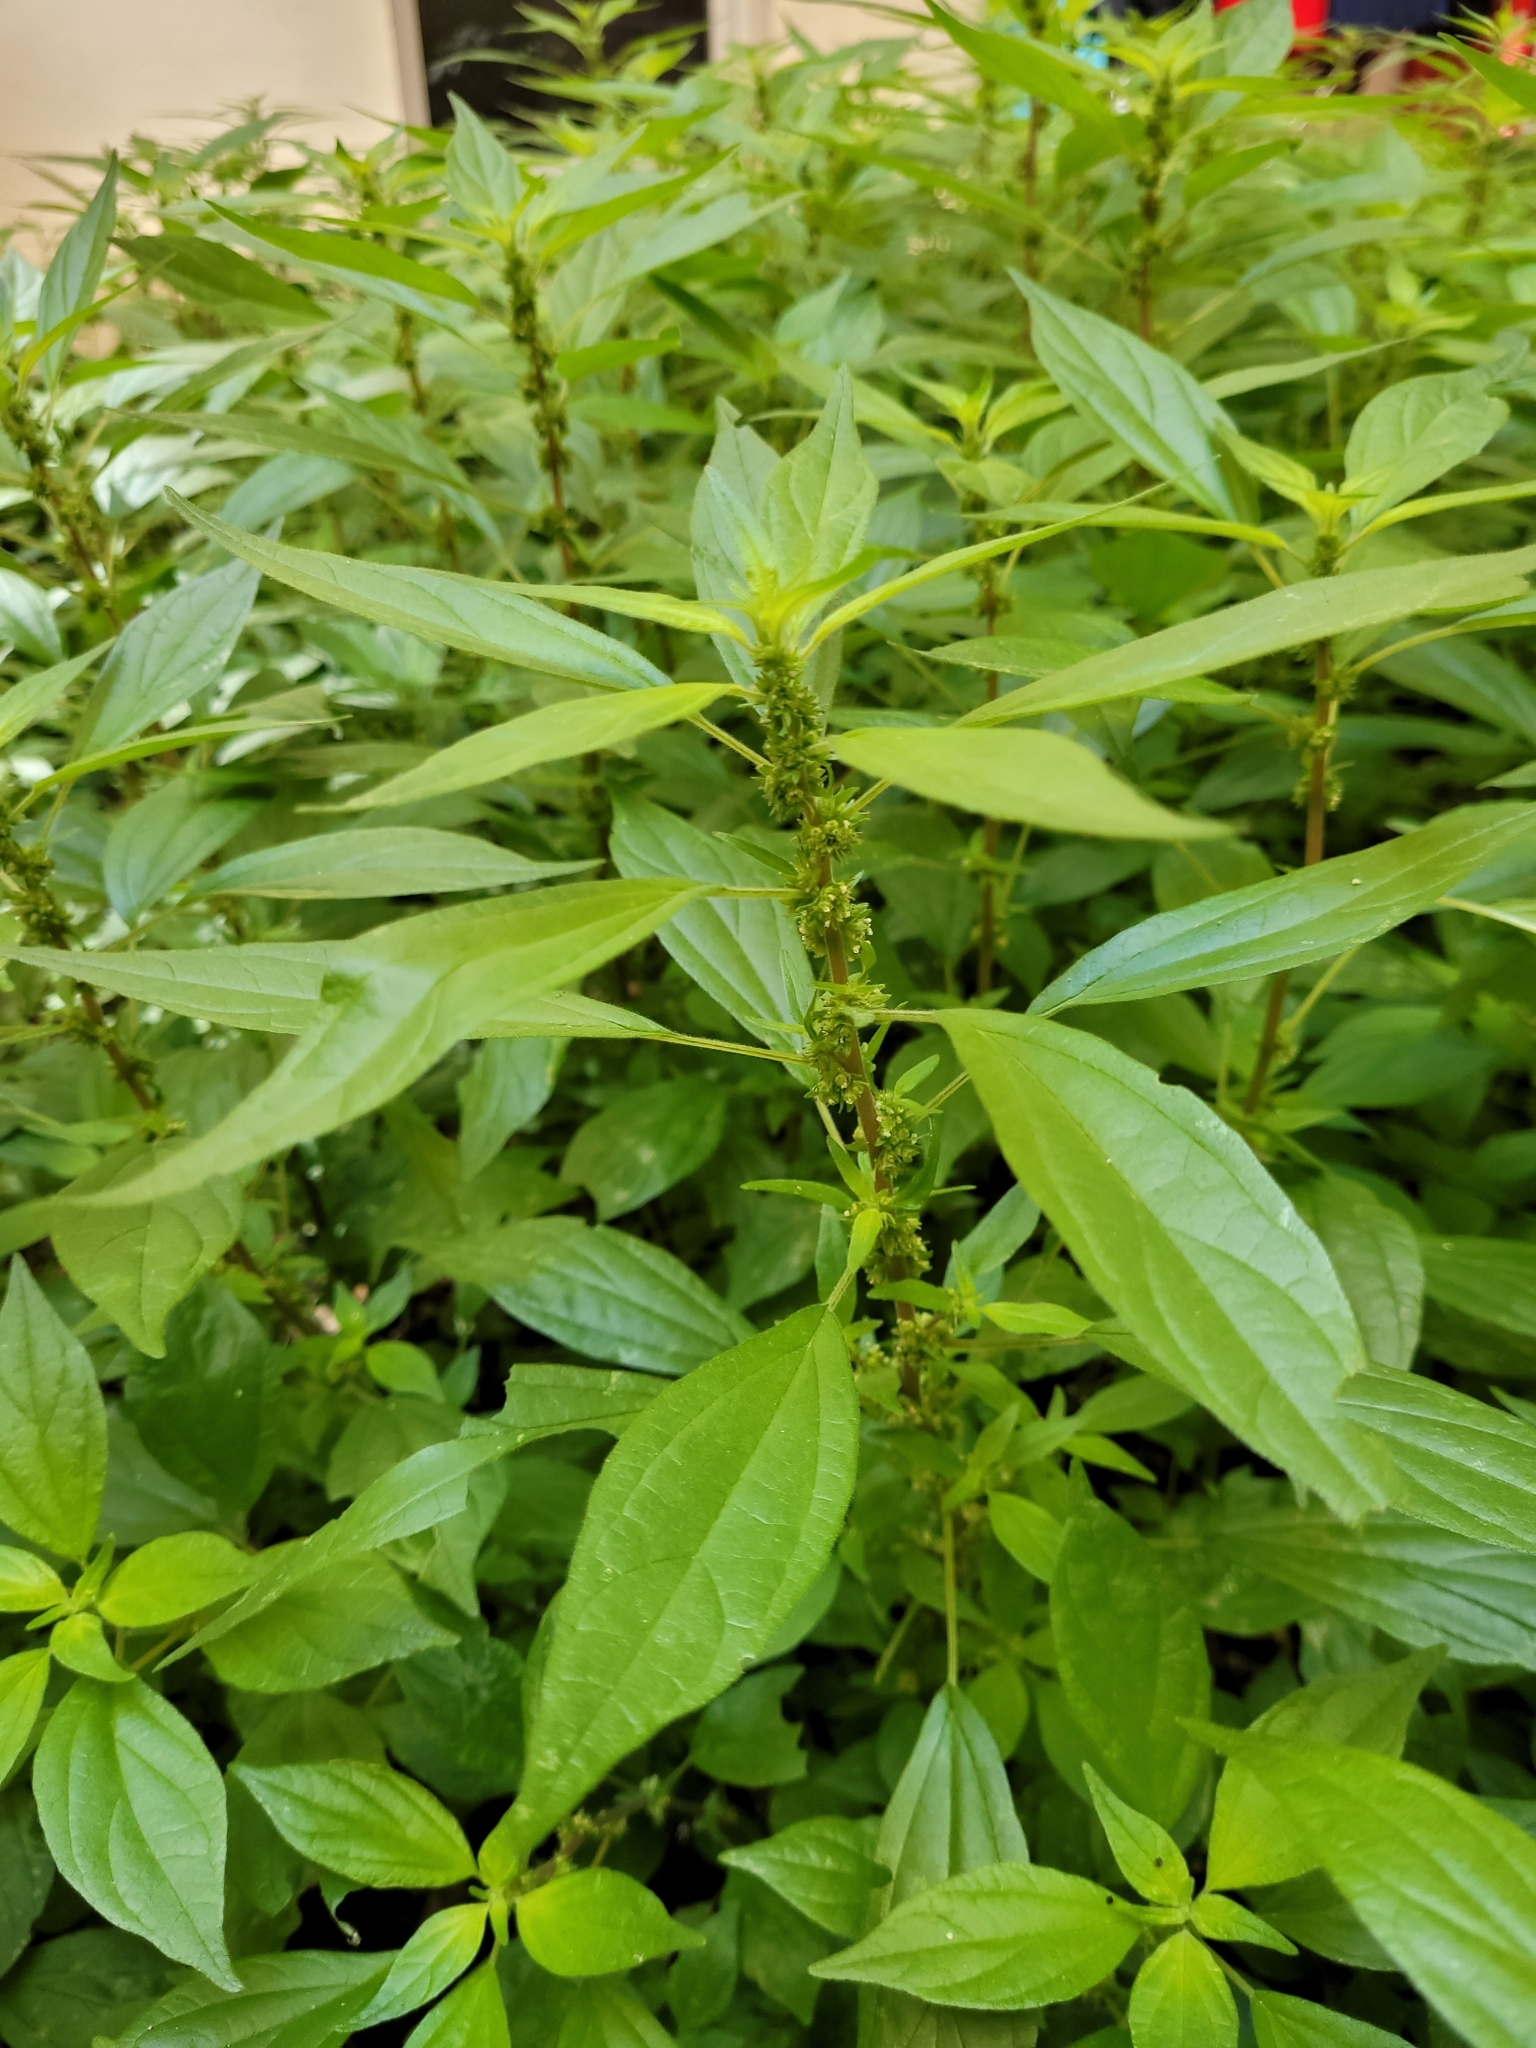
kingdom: Plantae
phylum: Tracheophyta
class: Magnoliopsida
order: Rosales
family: Urticaceae
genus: Parietaria
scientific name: Parietaria officinalis
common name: Eastern pellitory-of-the-wall
